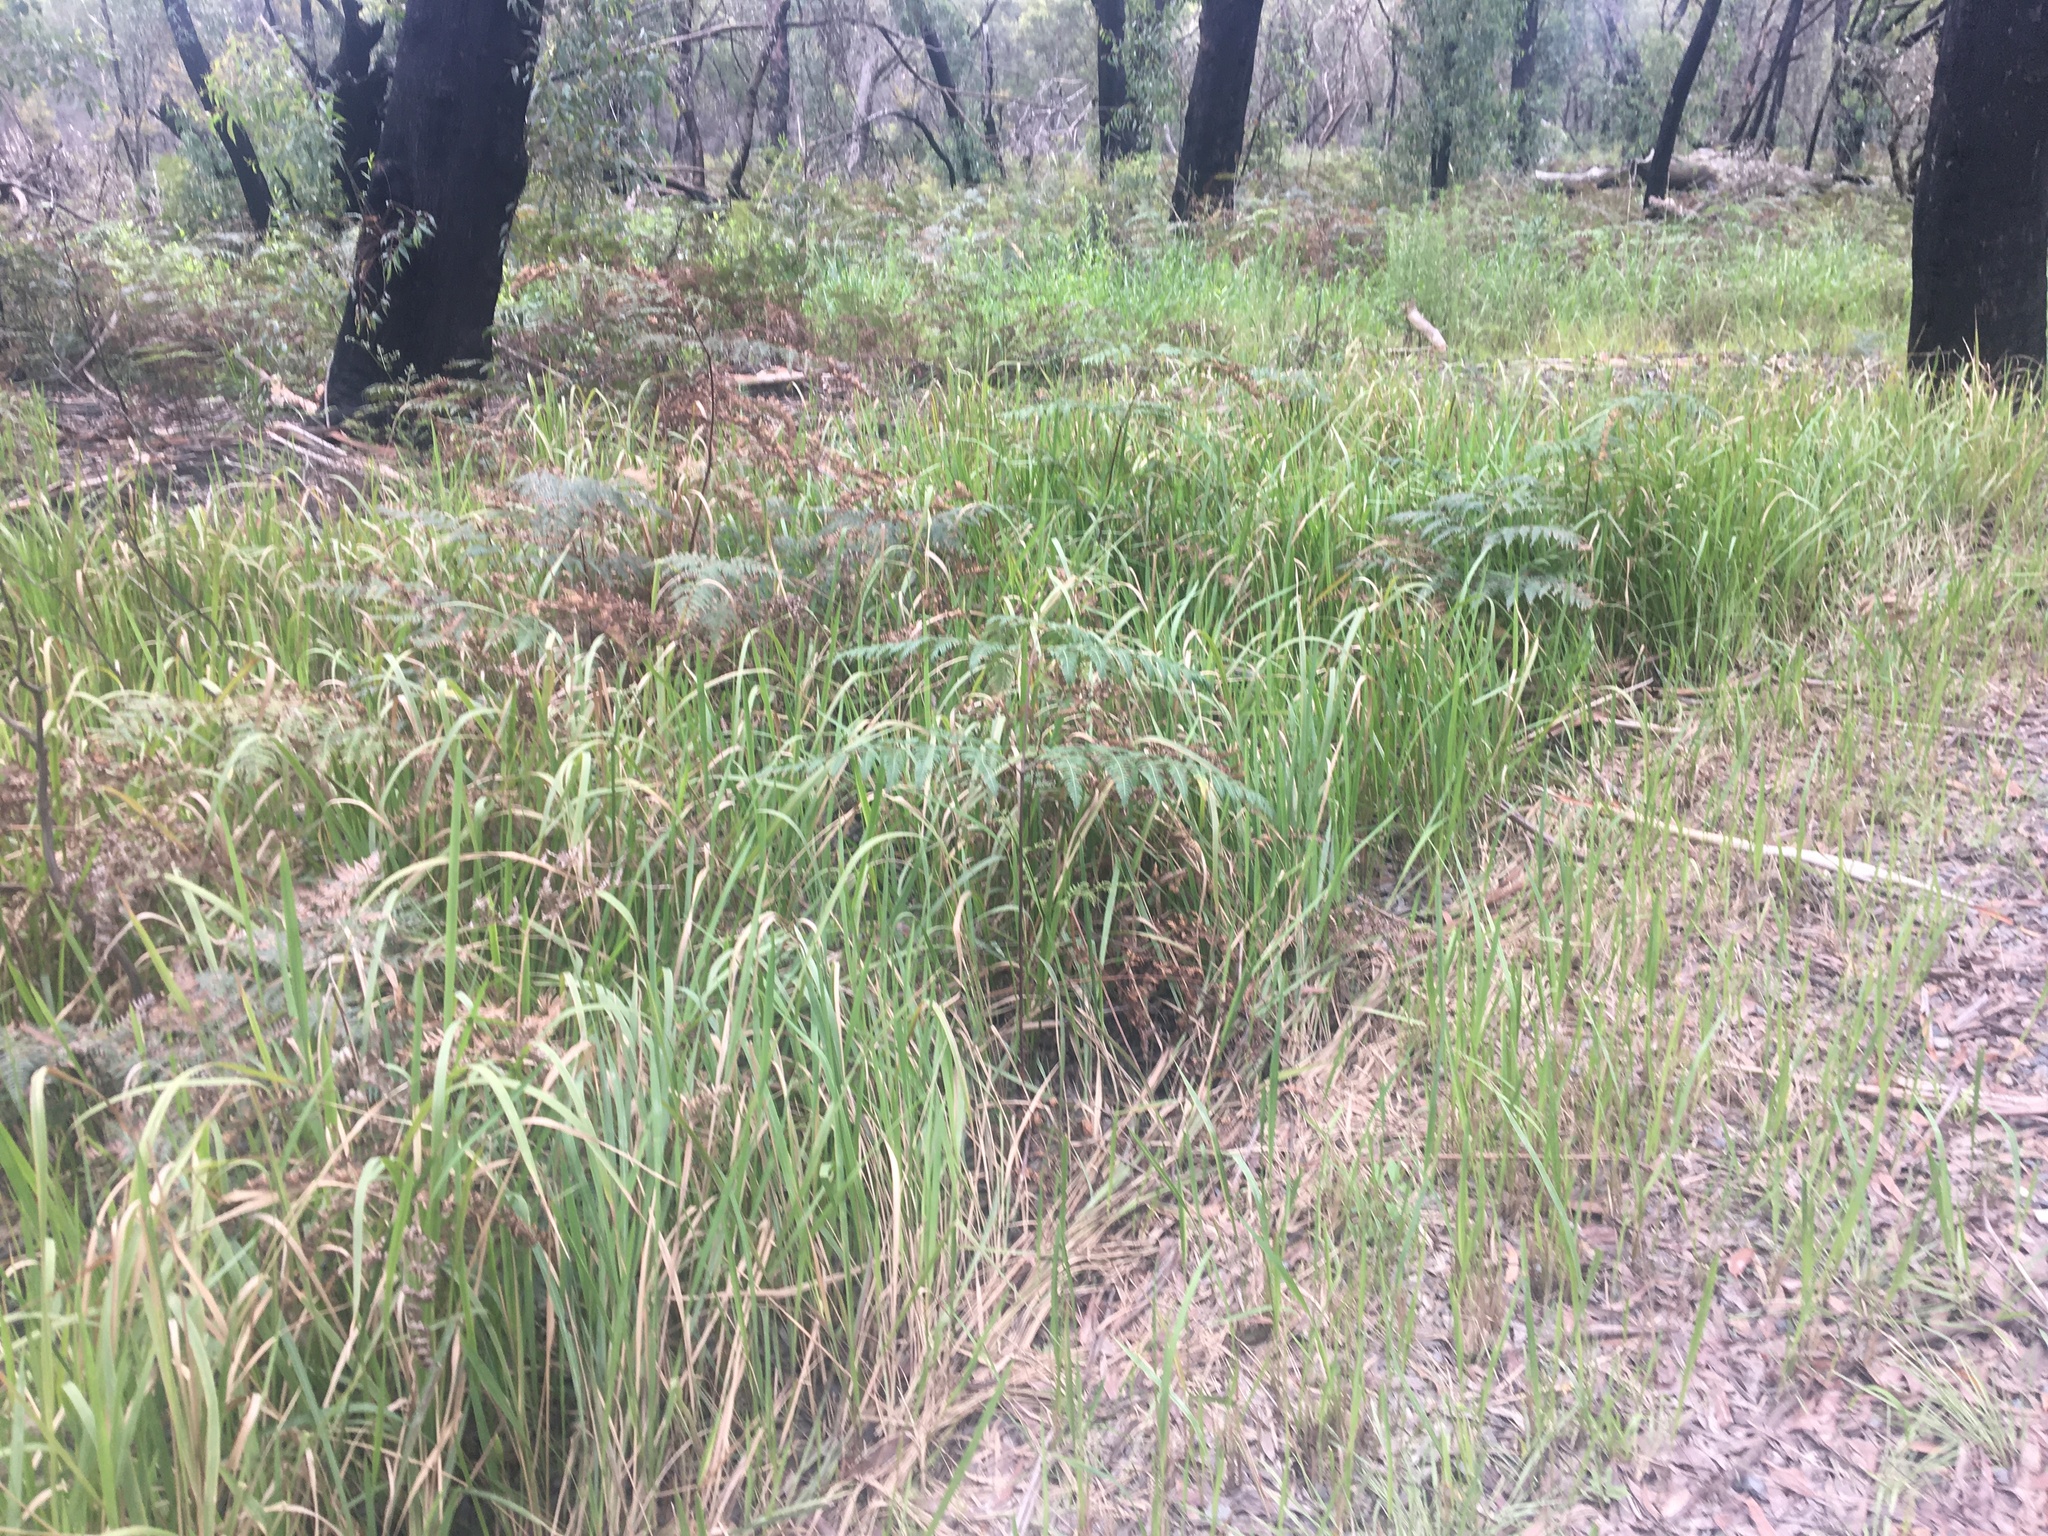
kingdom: Plantae
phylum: Tracheophyta
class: Liliopsida
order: Poales
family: Poaceae
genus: Imperata
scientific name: Imperata cylindrica
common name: Cogongrass
